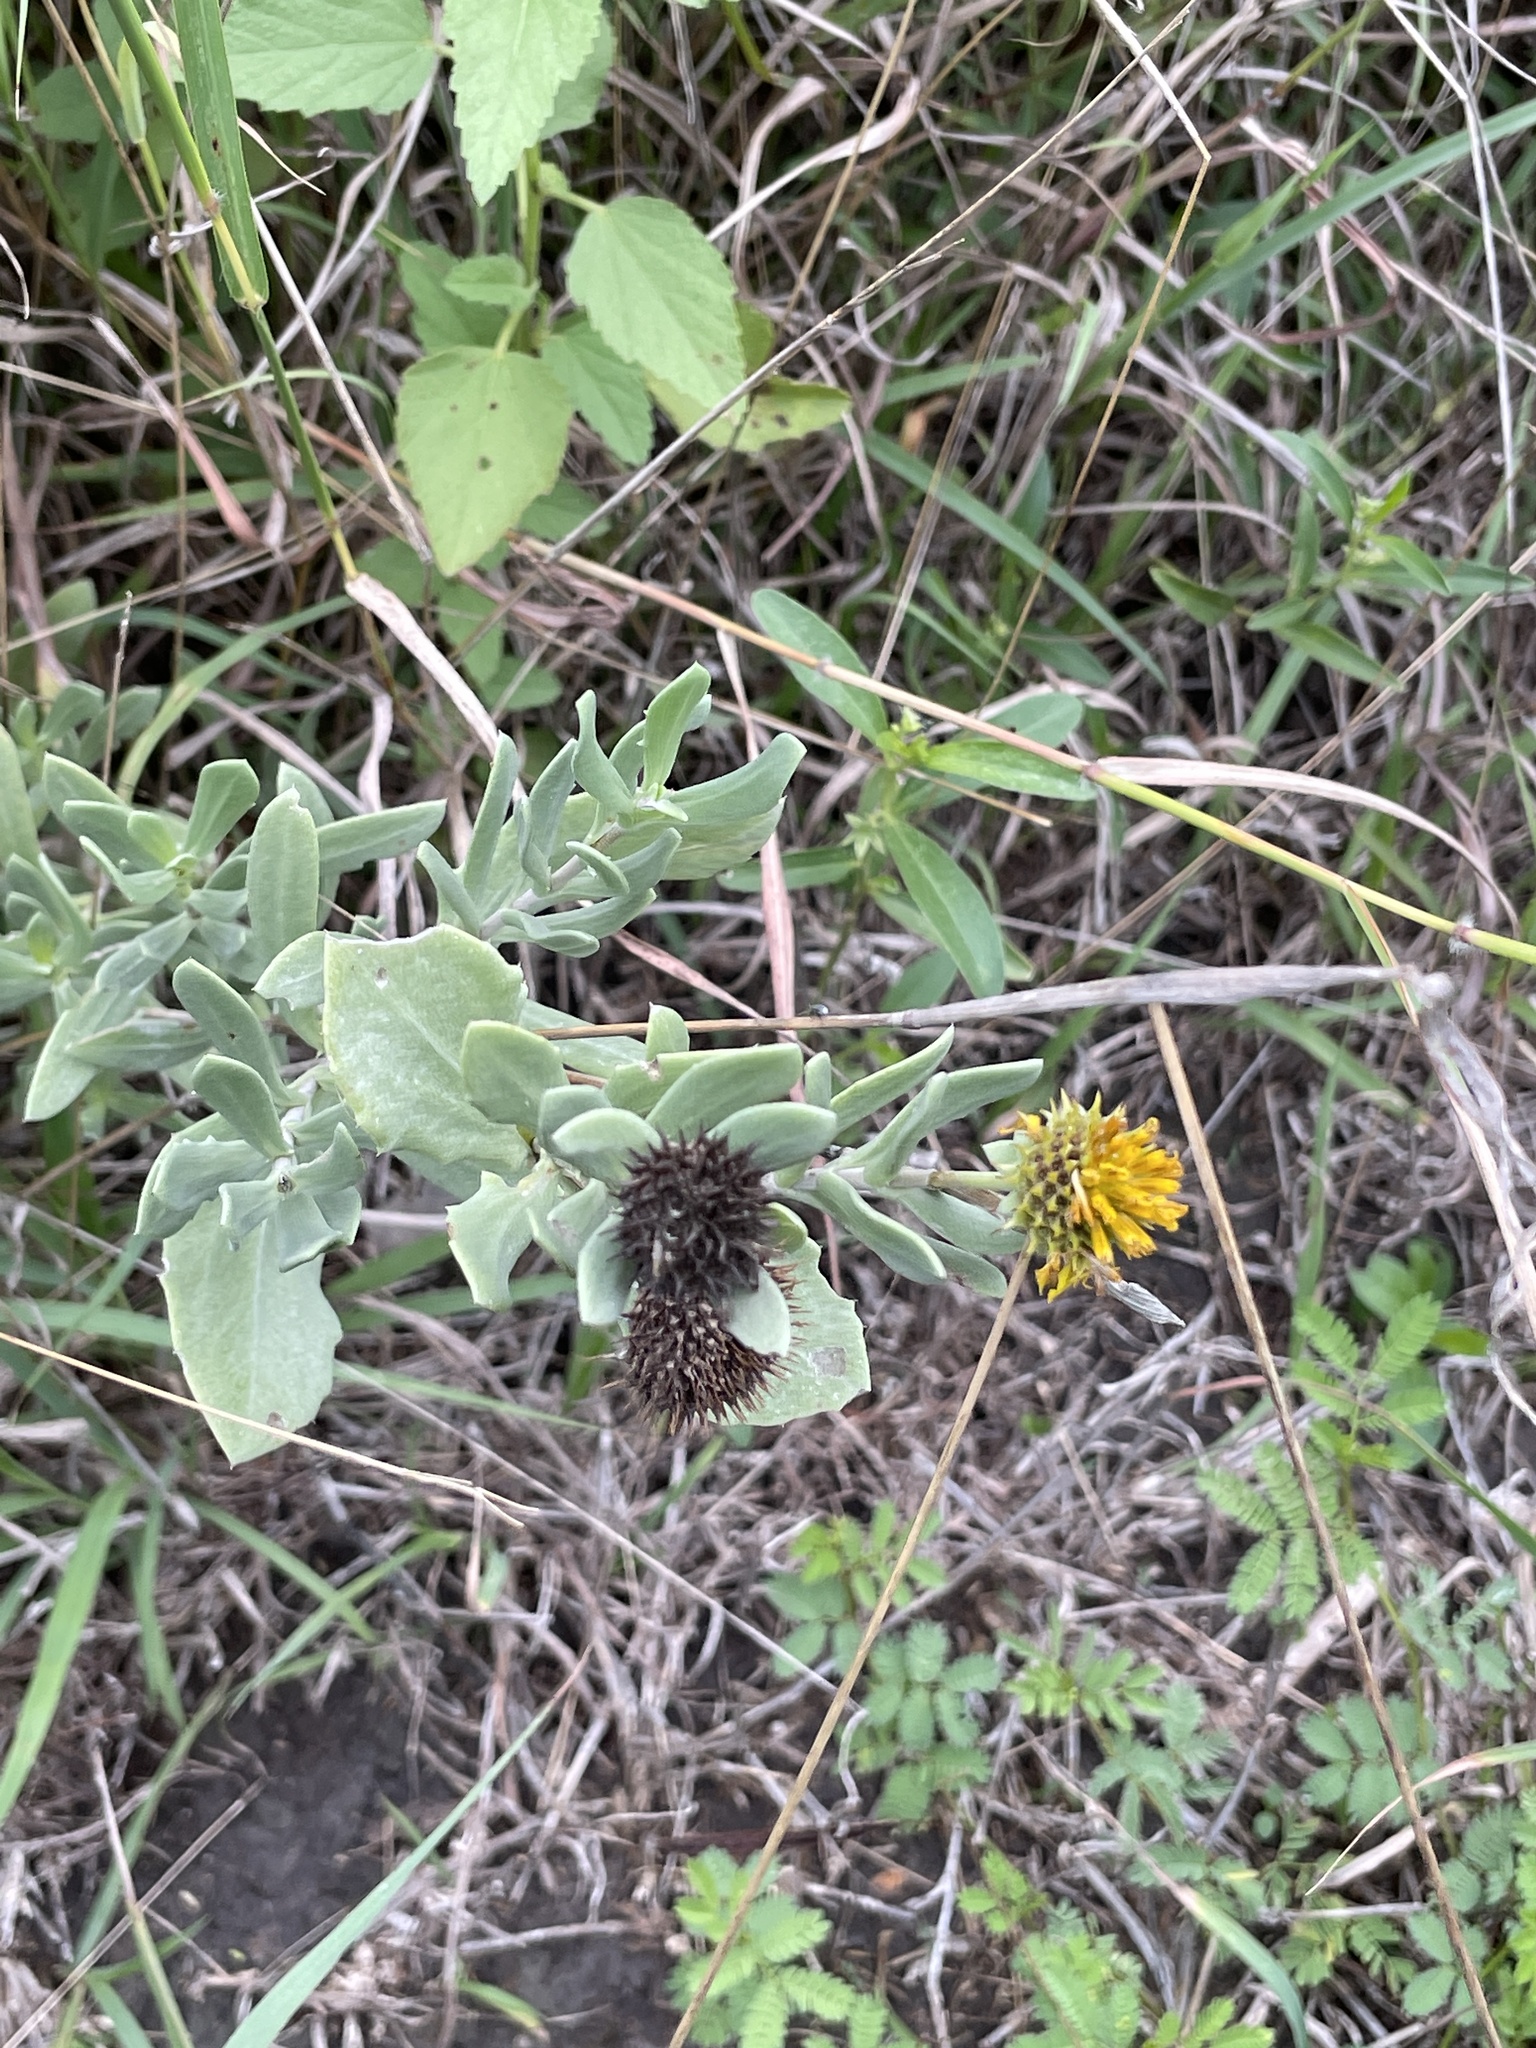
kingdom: Plantae
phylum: Tracheophyta
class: Magnoliopsida
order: Asterales
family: Asteraceae
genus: Borrichia
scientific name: Borrichia frutescens
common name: Sea oxeye
